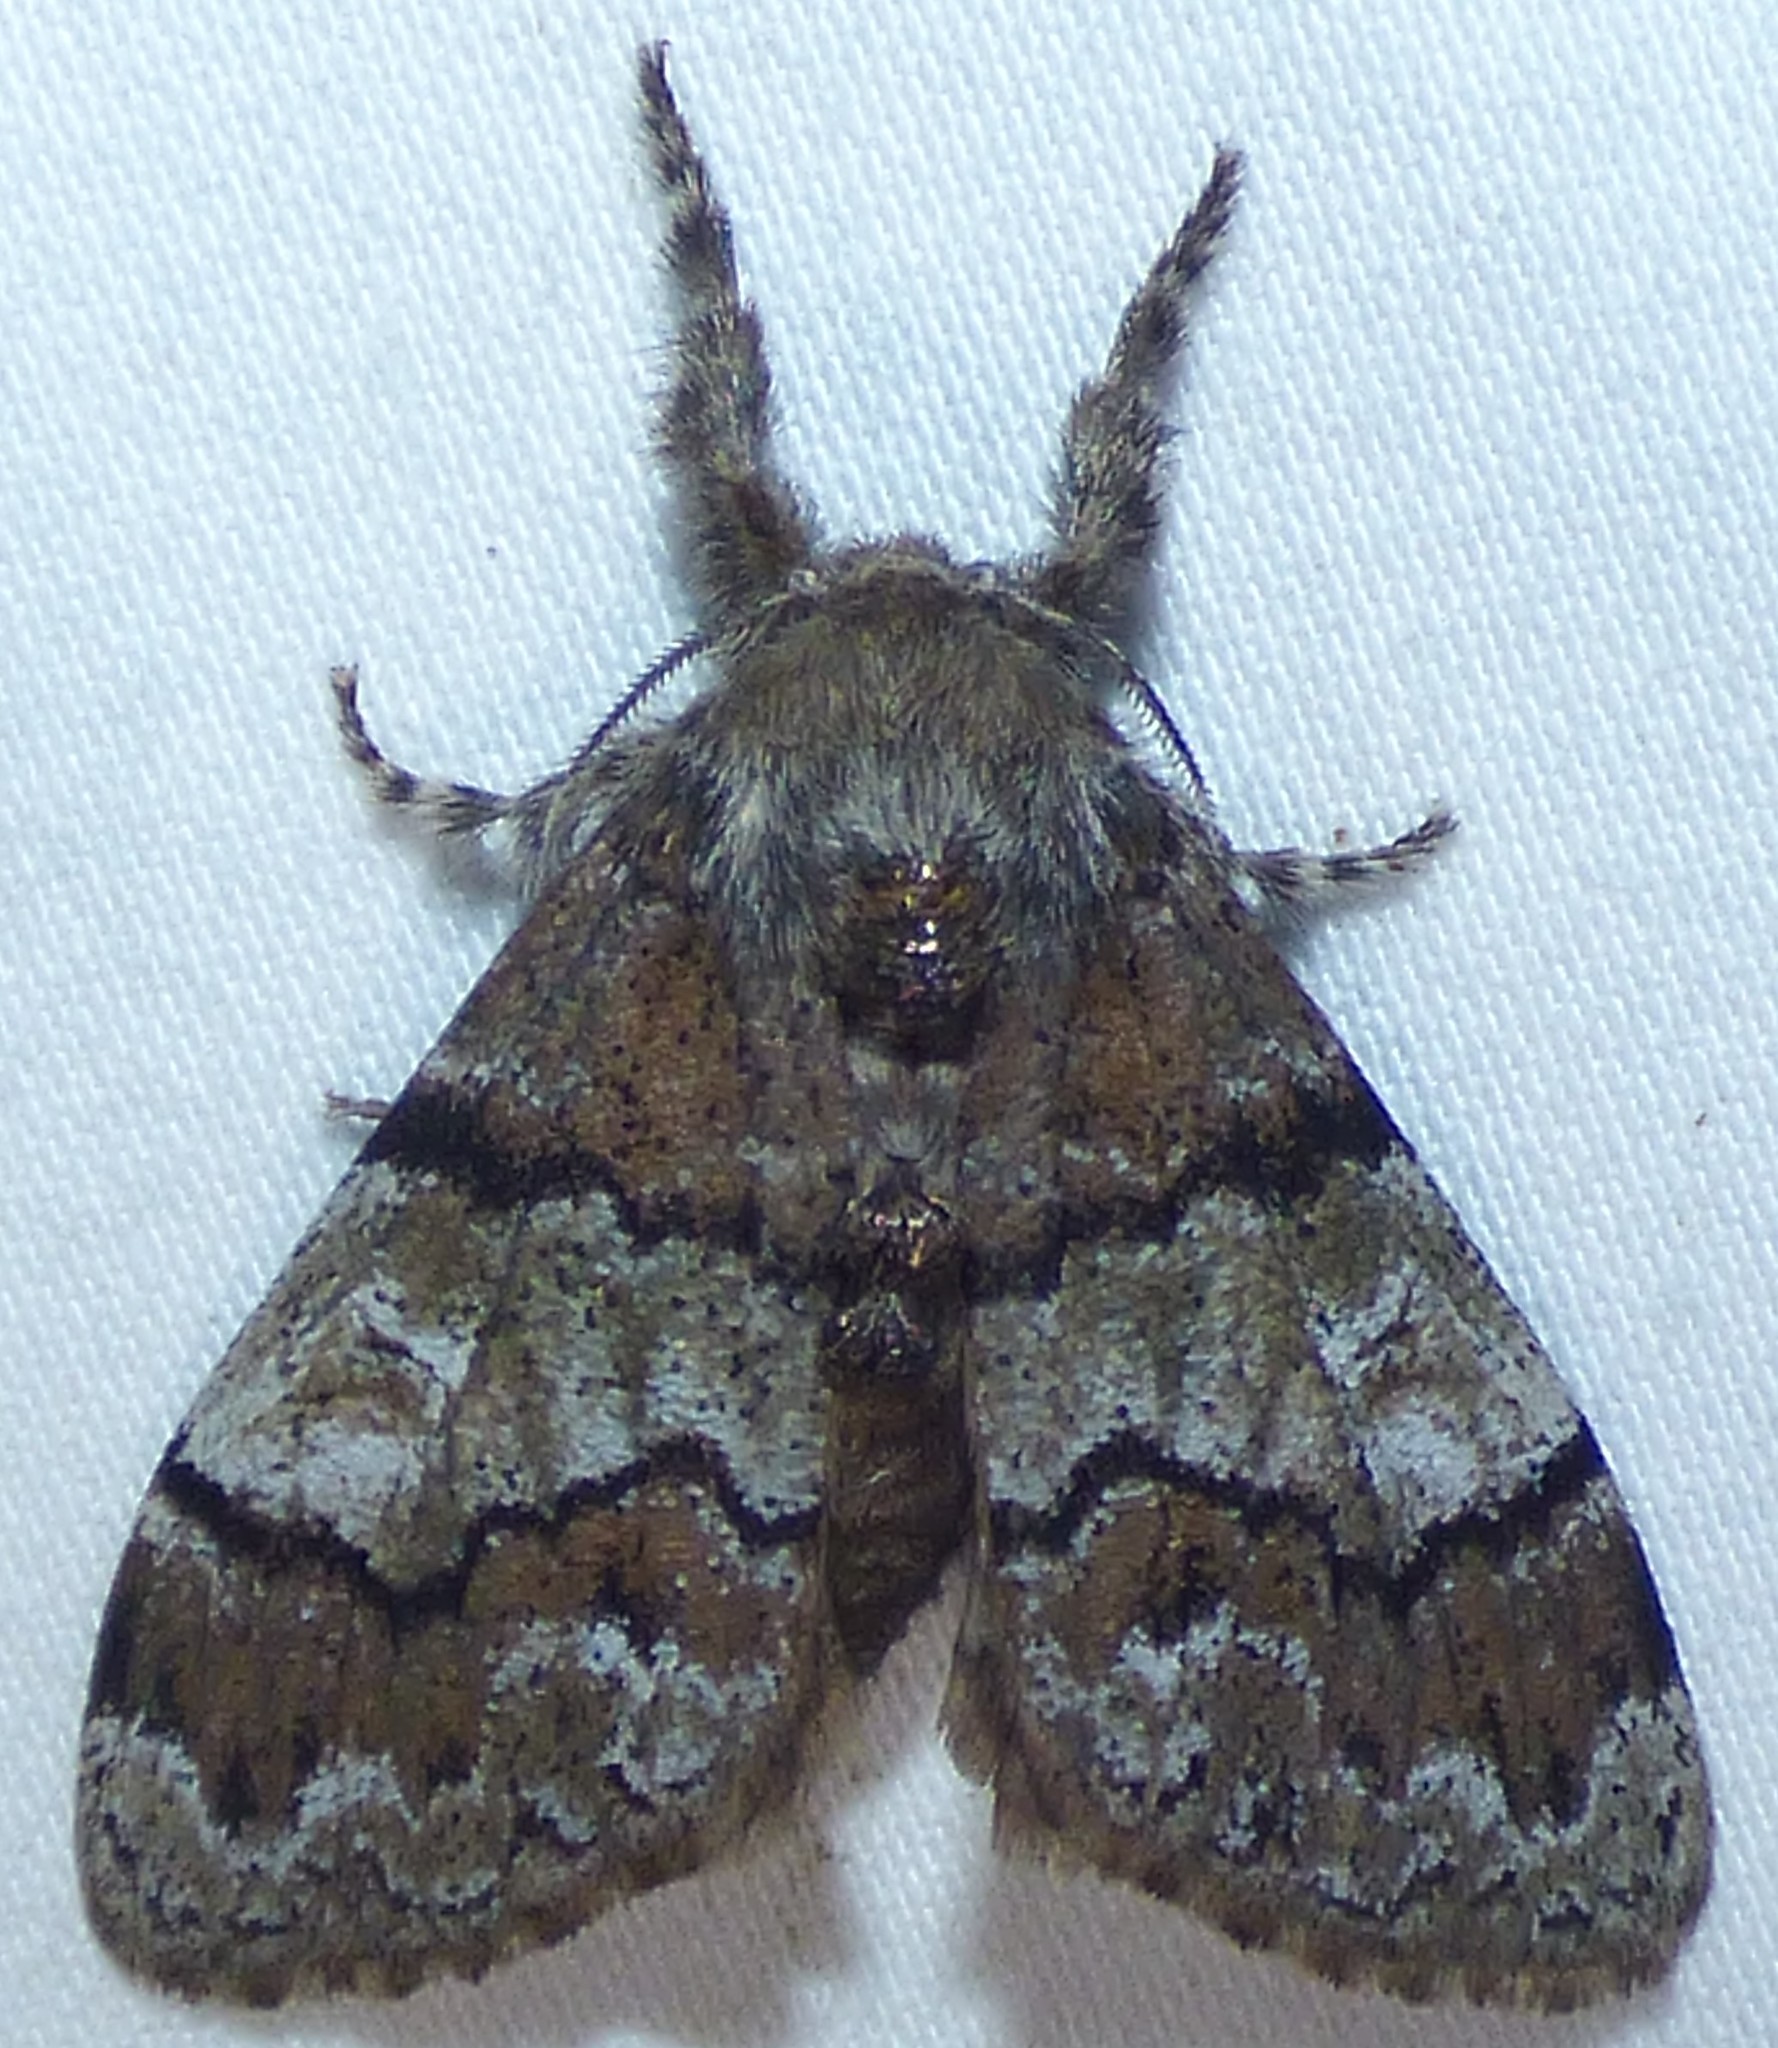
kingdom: Animalia
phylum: Arthropoda
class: Insecta
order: Lepidoptera
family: Erebidae
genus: Dasychira
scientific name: Dasychira manto
